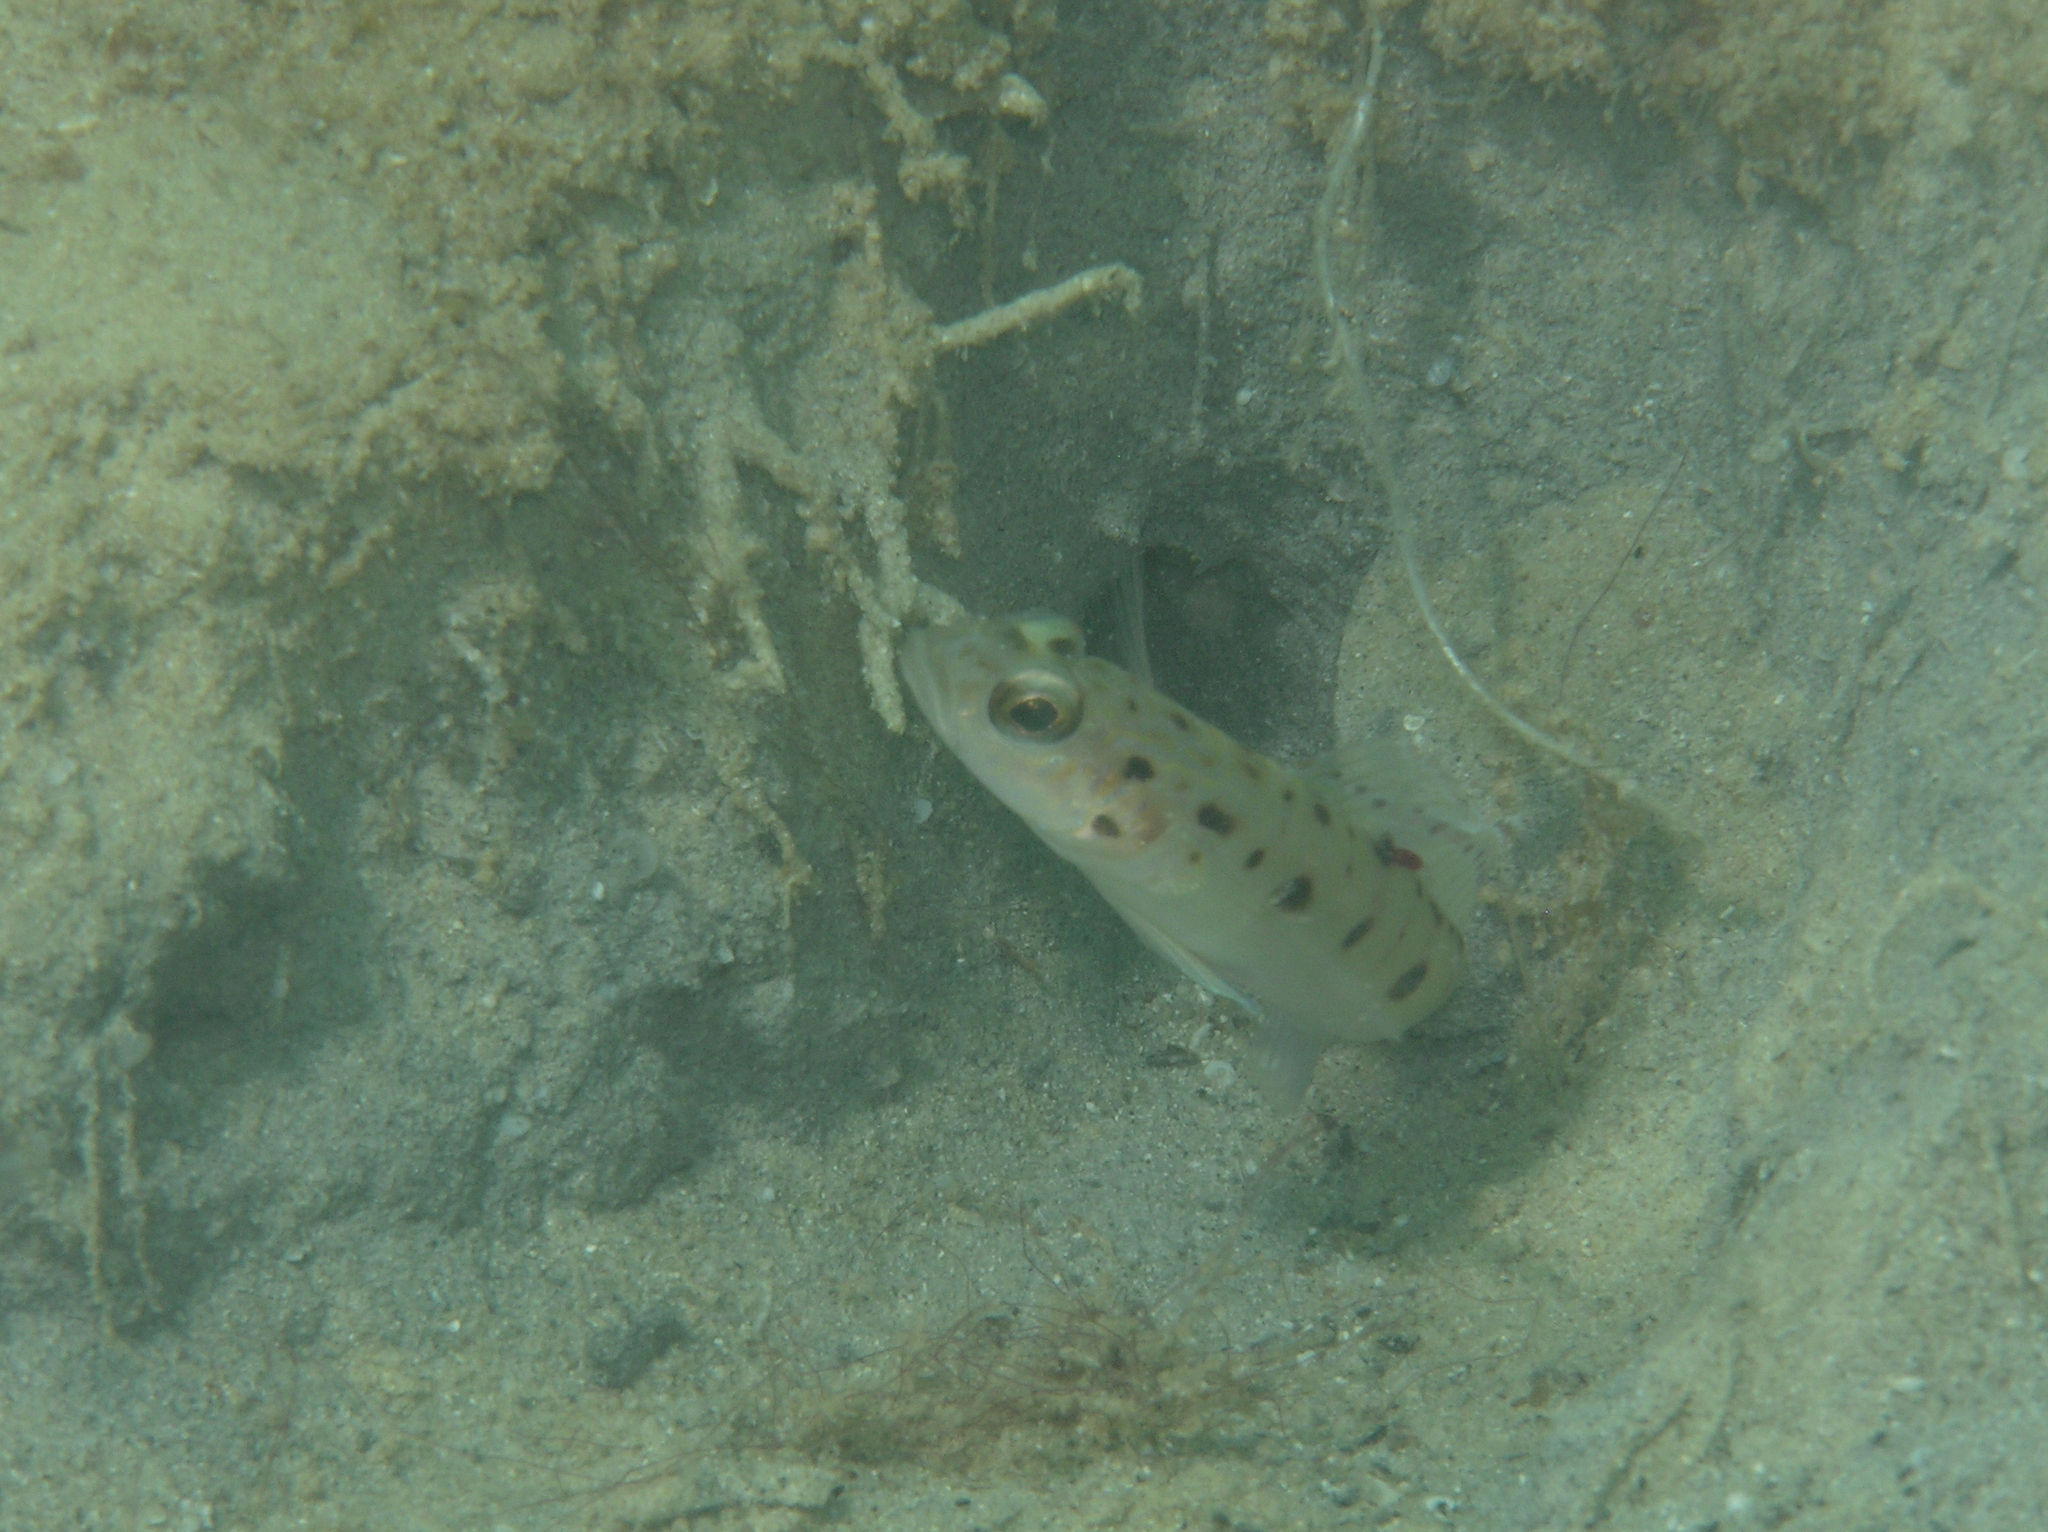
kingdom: Animalia
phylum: Chordata
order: Perciformes
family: Gobiidae
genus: Vanderhorstia
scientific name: Vanderhorstia ambanoro
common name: Ambanoro goby
